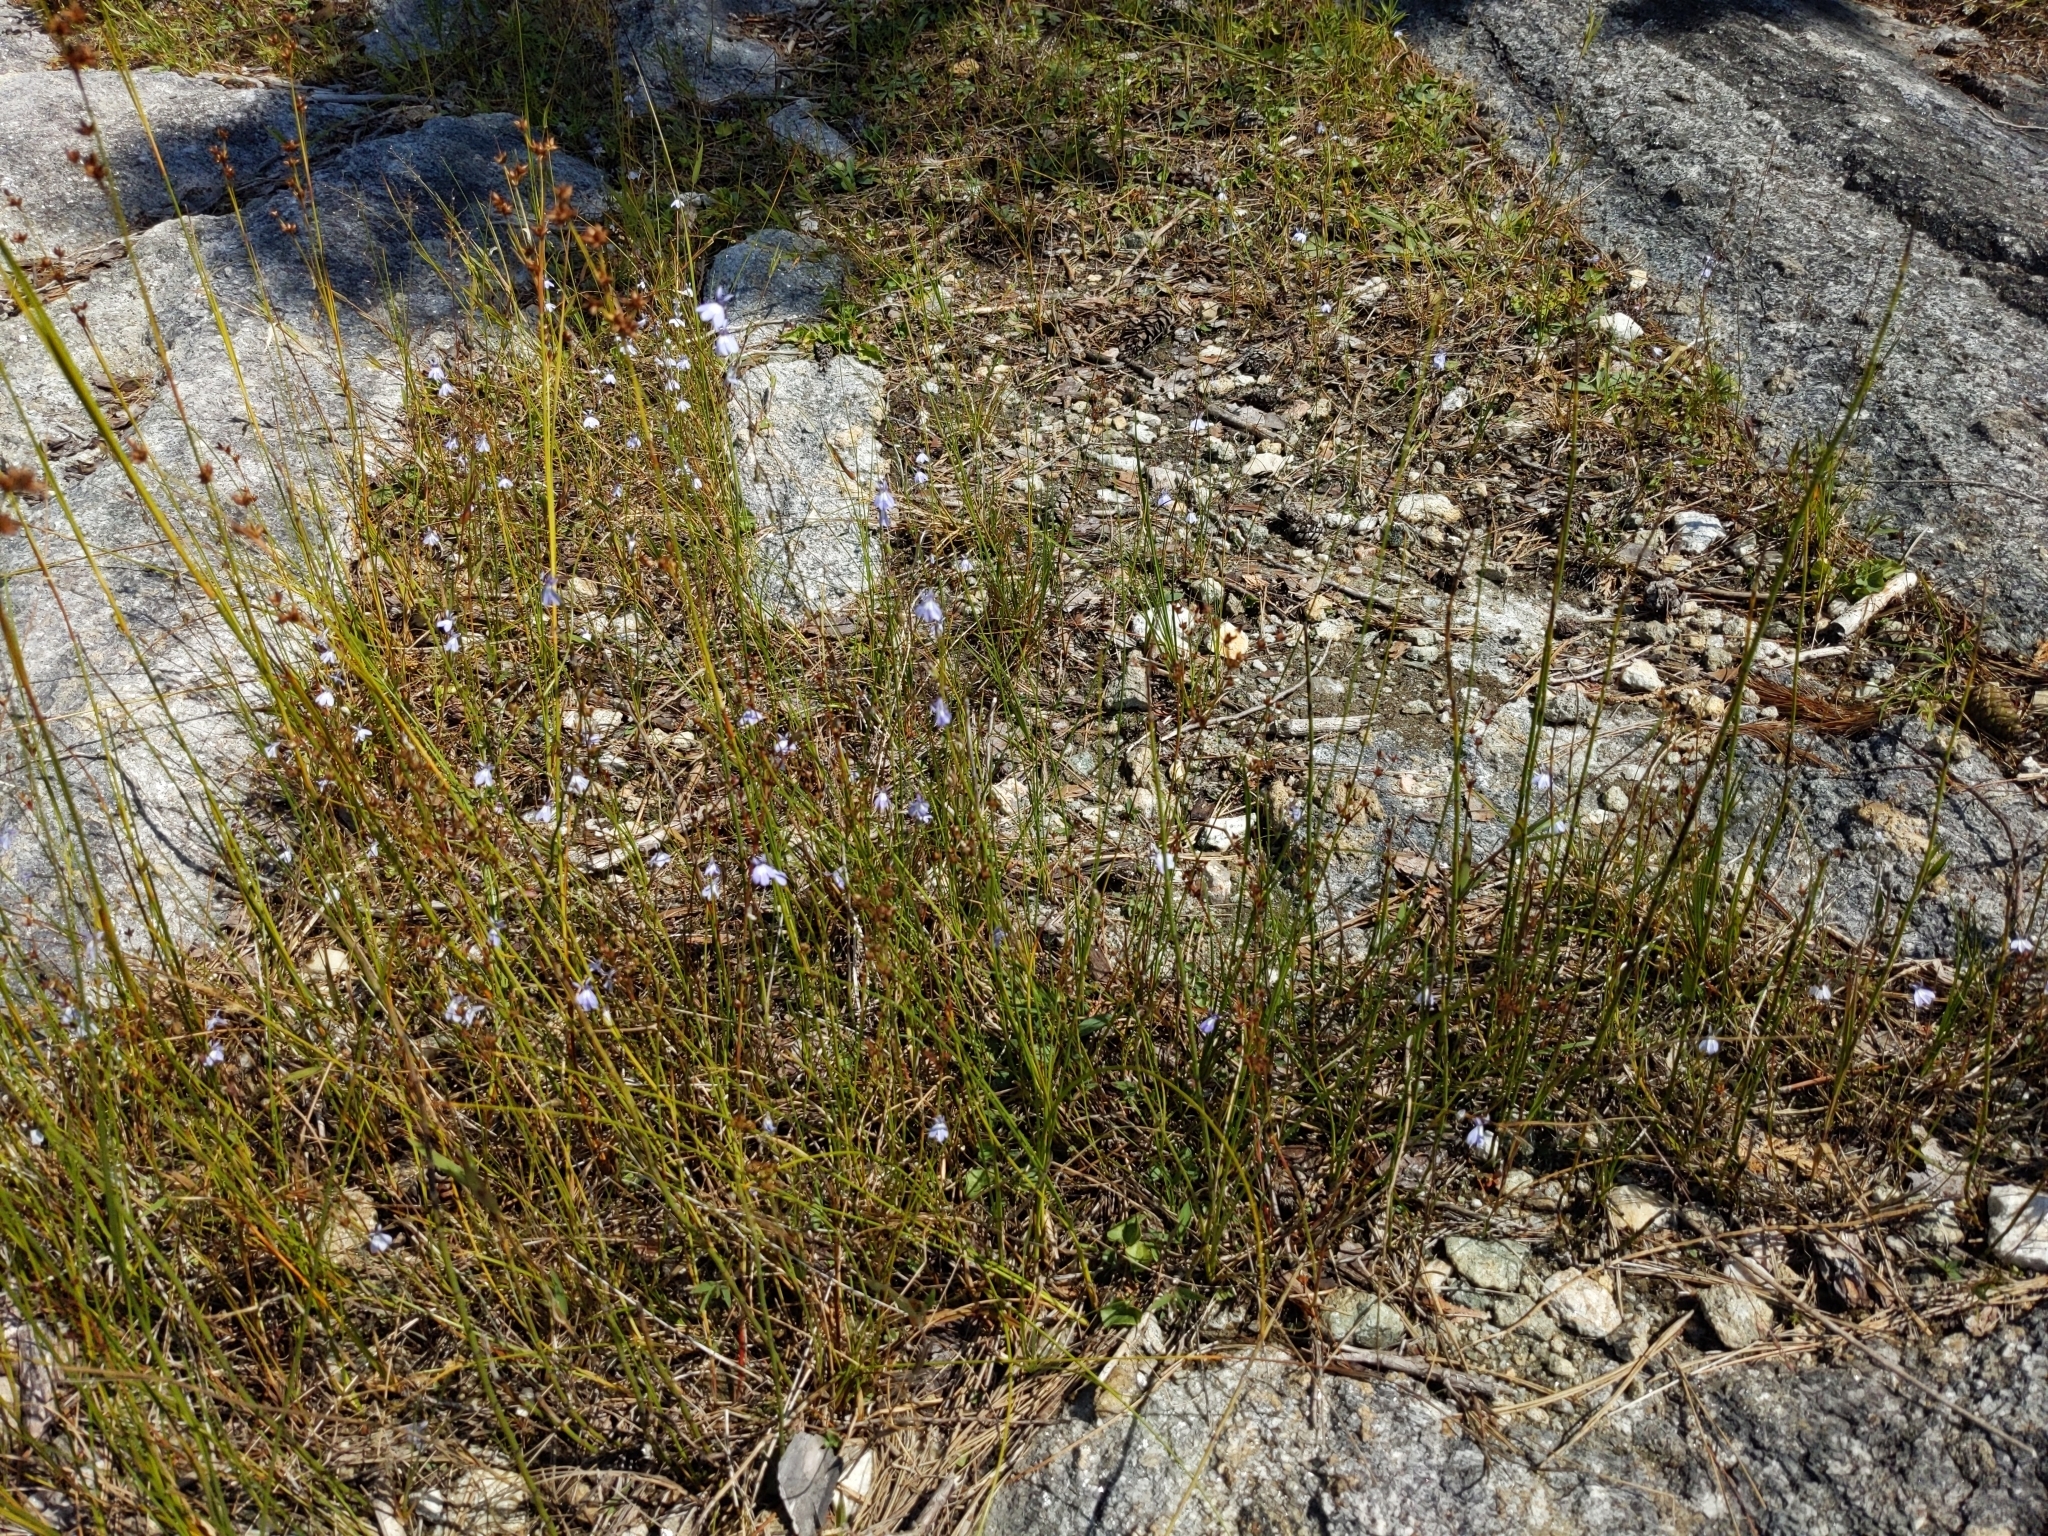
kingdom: Plantae
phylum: Tracheophyta
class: Magnoliopsida
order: Asterales
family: Campanulaceae
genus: Lobelia
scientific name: Lobelia kalmii
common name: Kalm's lobelia
